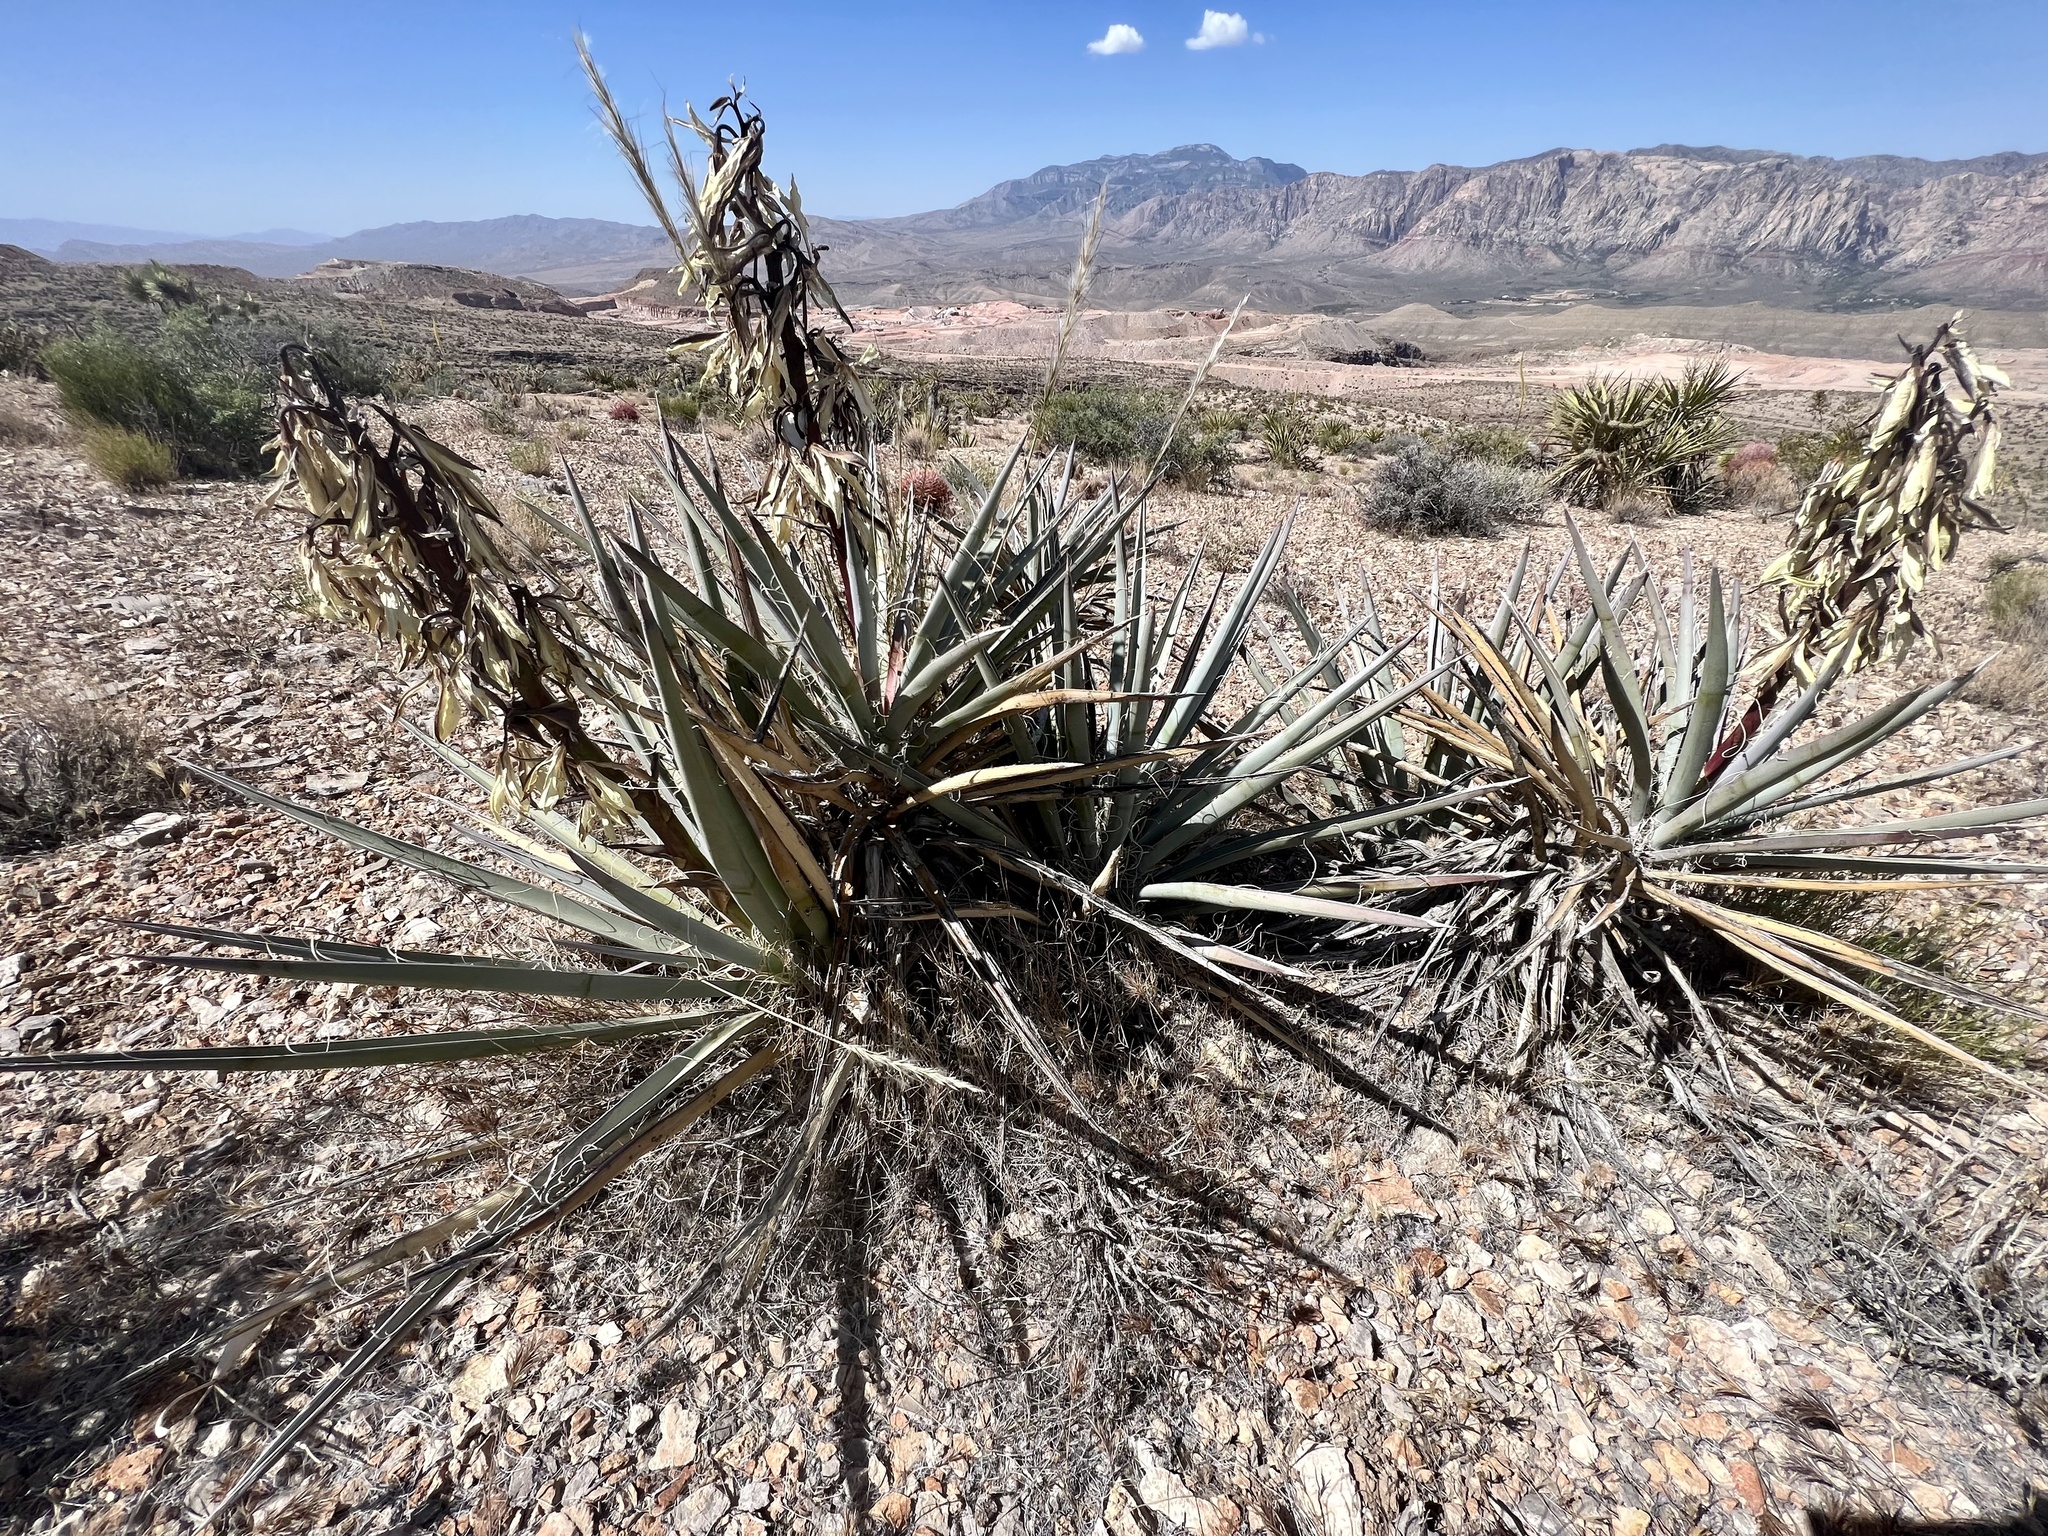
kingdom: Plantae
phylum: Tracheophyta
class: Liliopsida
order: Asparagales
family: Asparagaceae
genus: Yucca
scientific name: Yucca baccata
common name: Banana yucca
